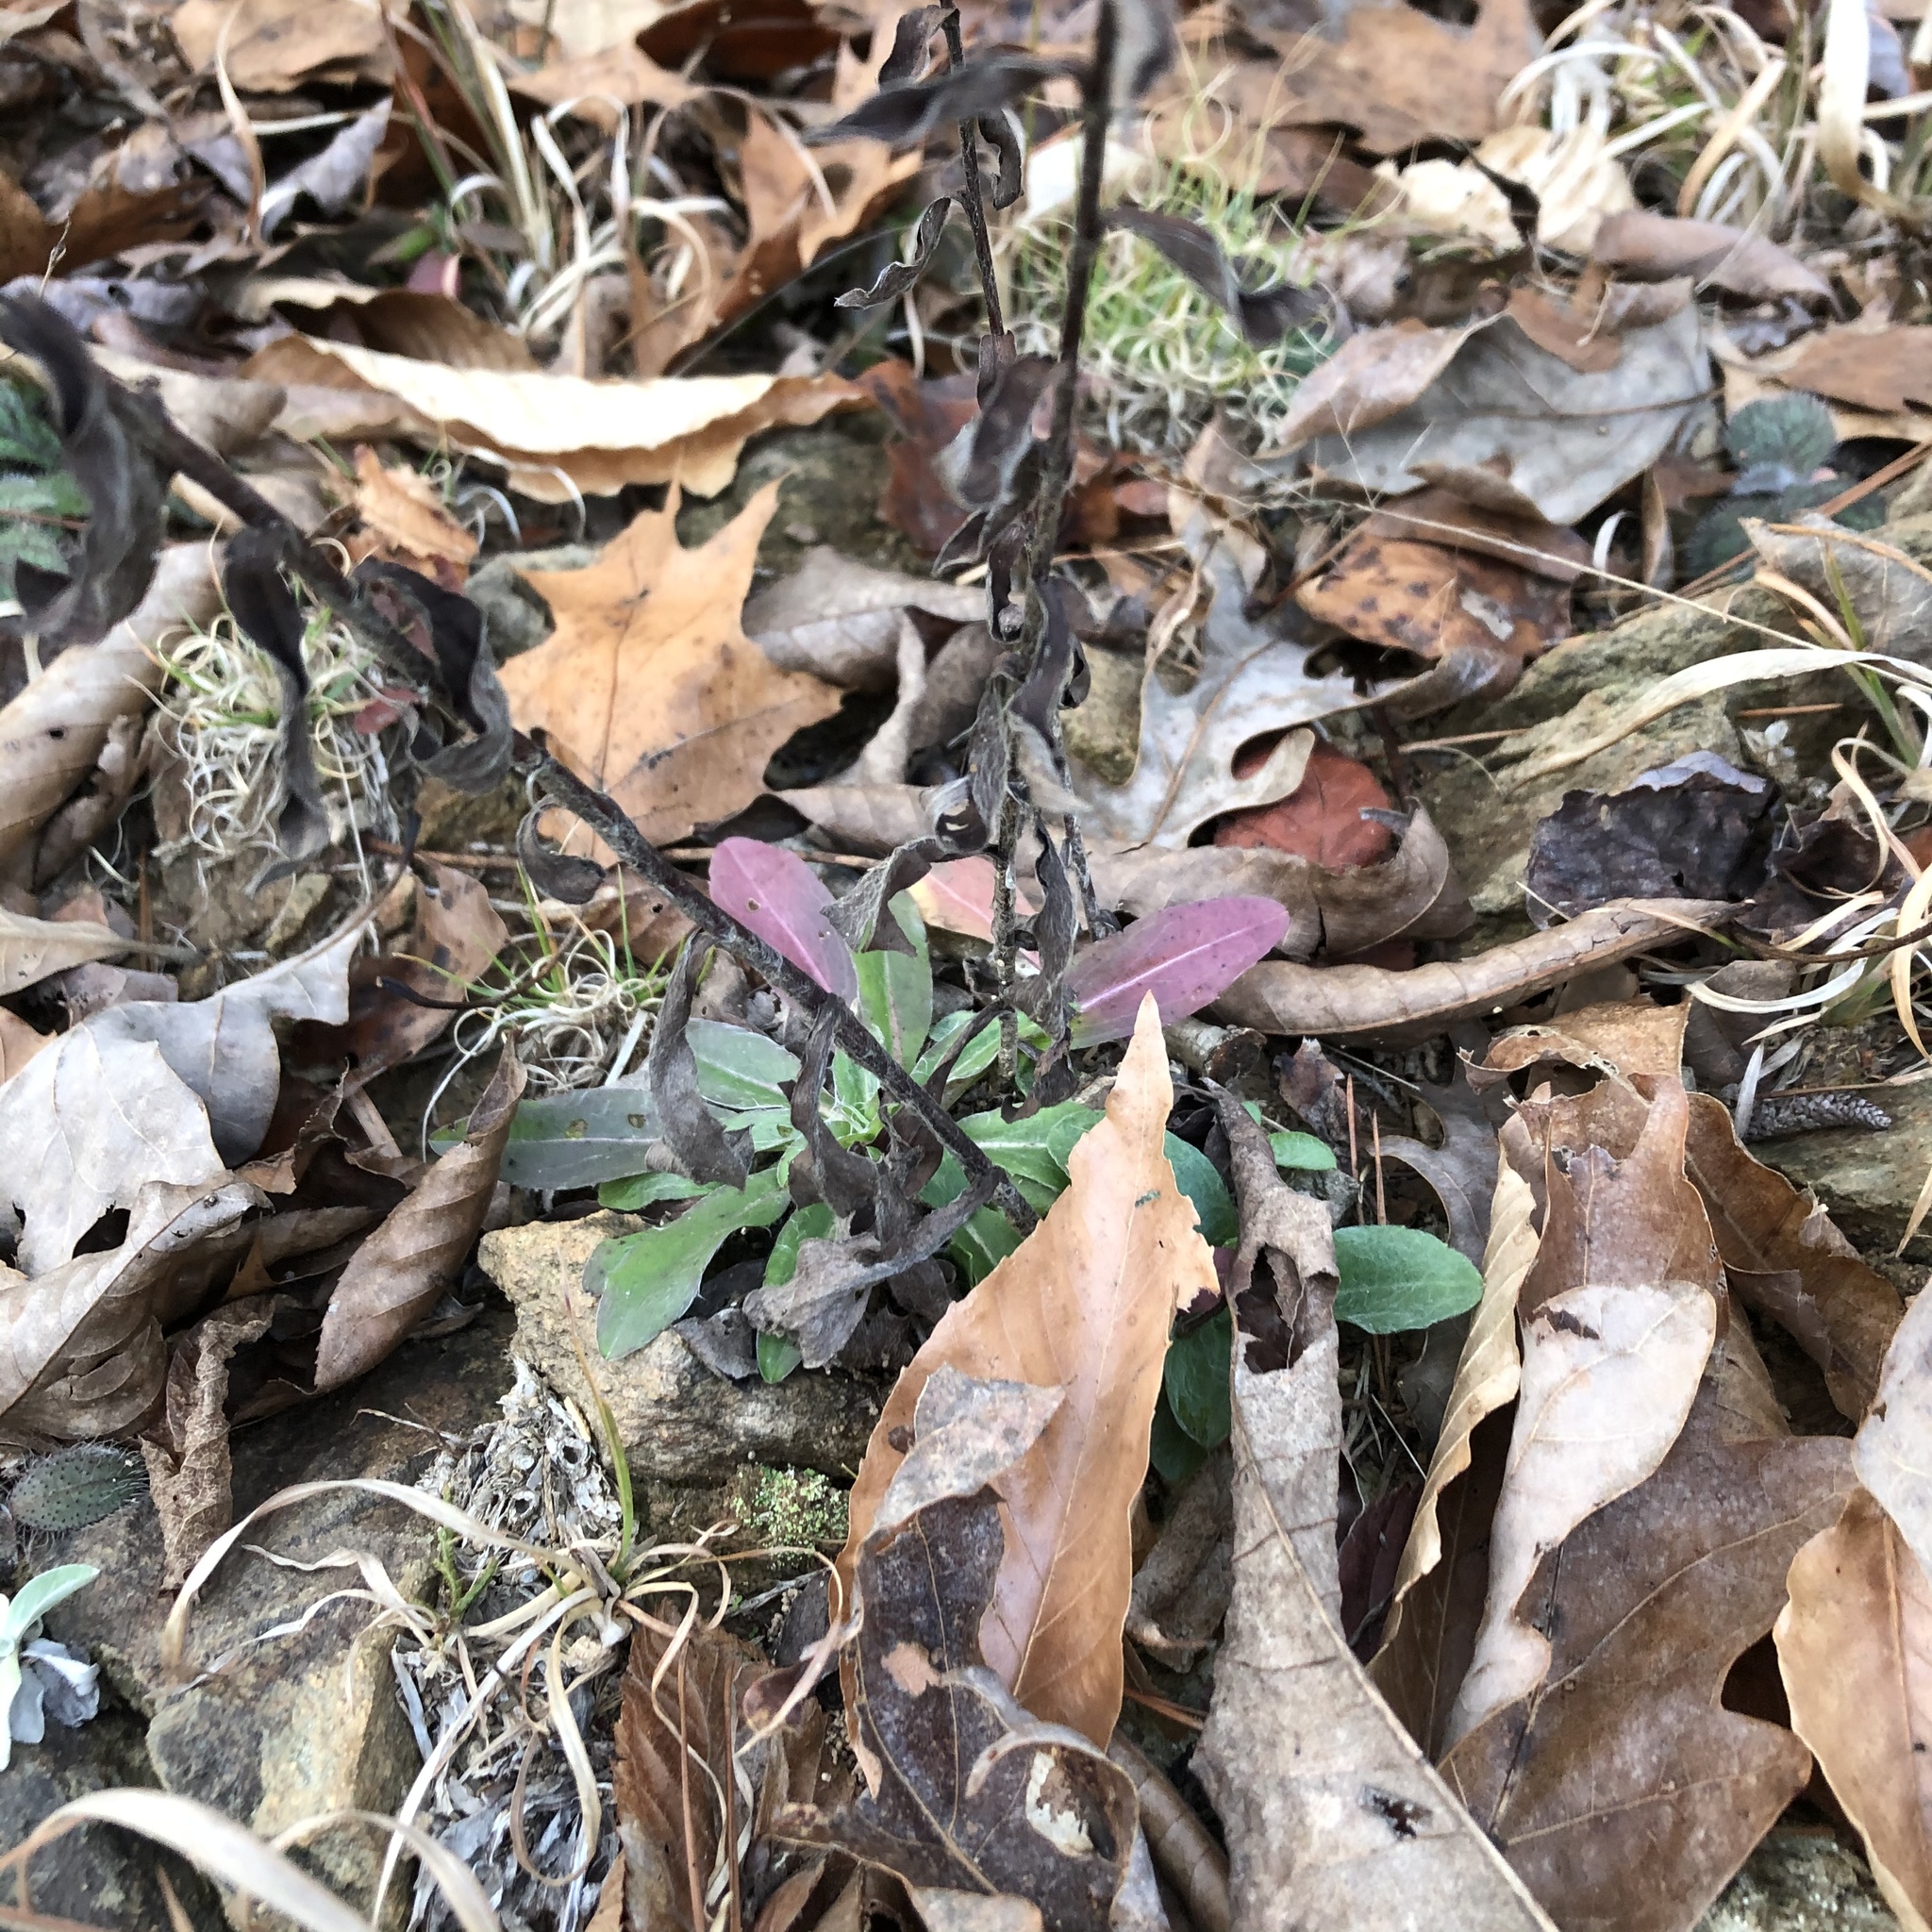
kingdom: Plantae
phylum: Tracheophyta
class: Magnoliopsida
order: Asterales
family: Asteraceae
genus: Chrysopsis
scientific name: Chrysopsis mariana
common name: Maryland golden-aster
